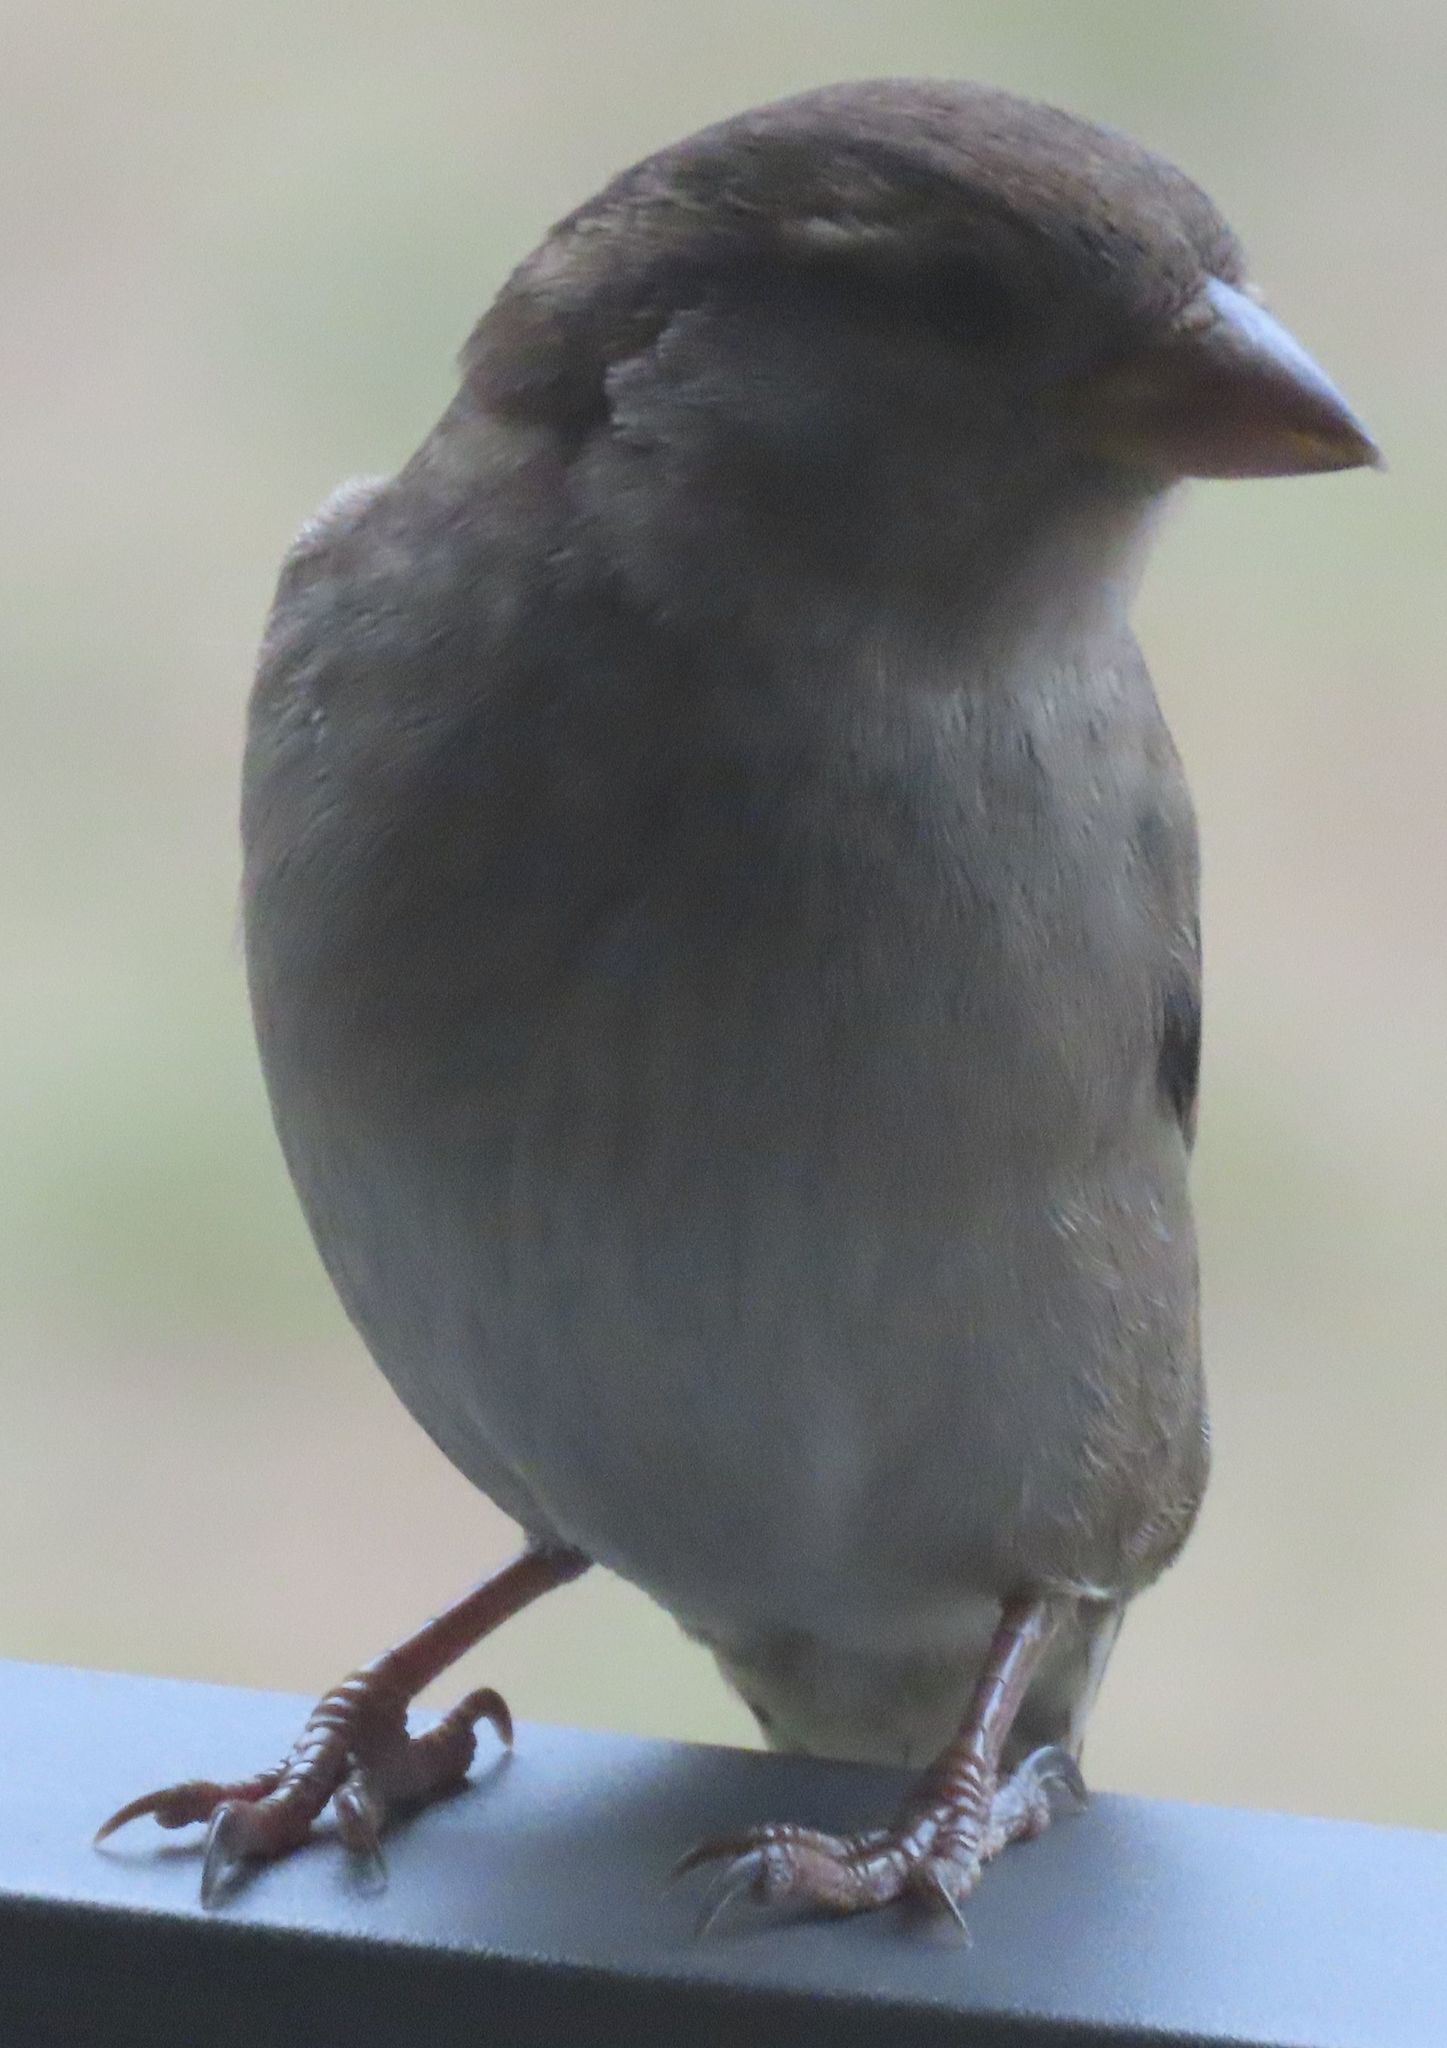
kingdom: Animalia
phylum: Chordata
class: Aves
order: Passeriformes
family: Passeridae
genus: Passer
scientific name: Passer domesticus
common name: House sparrow
